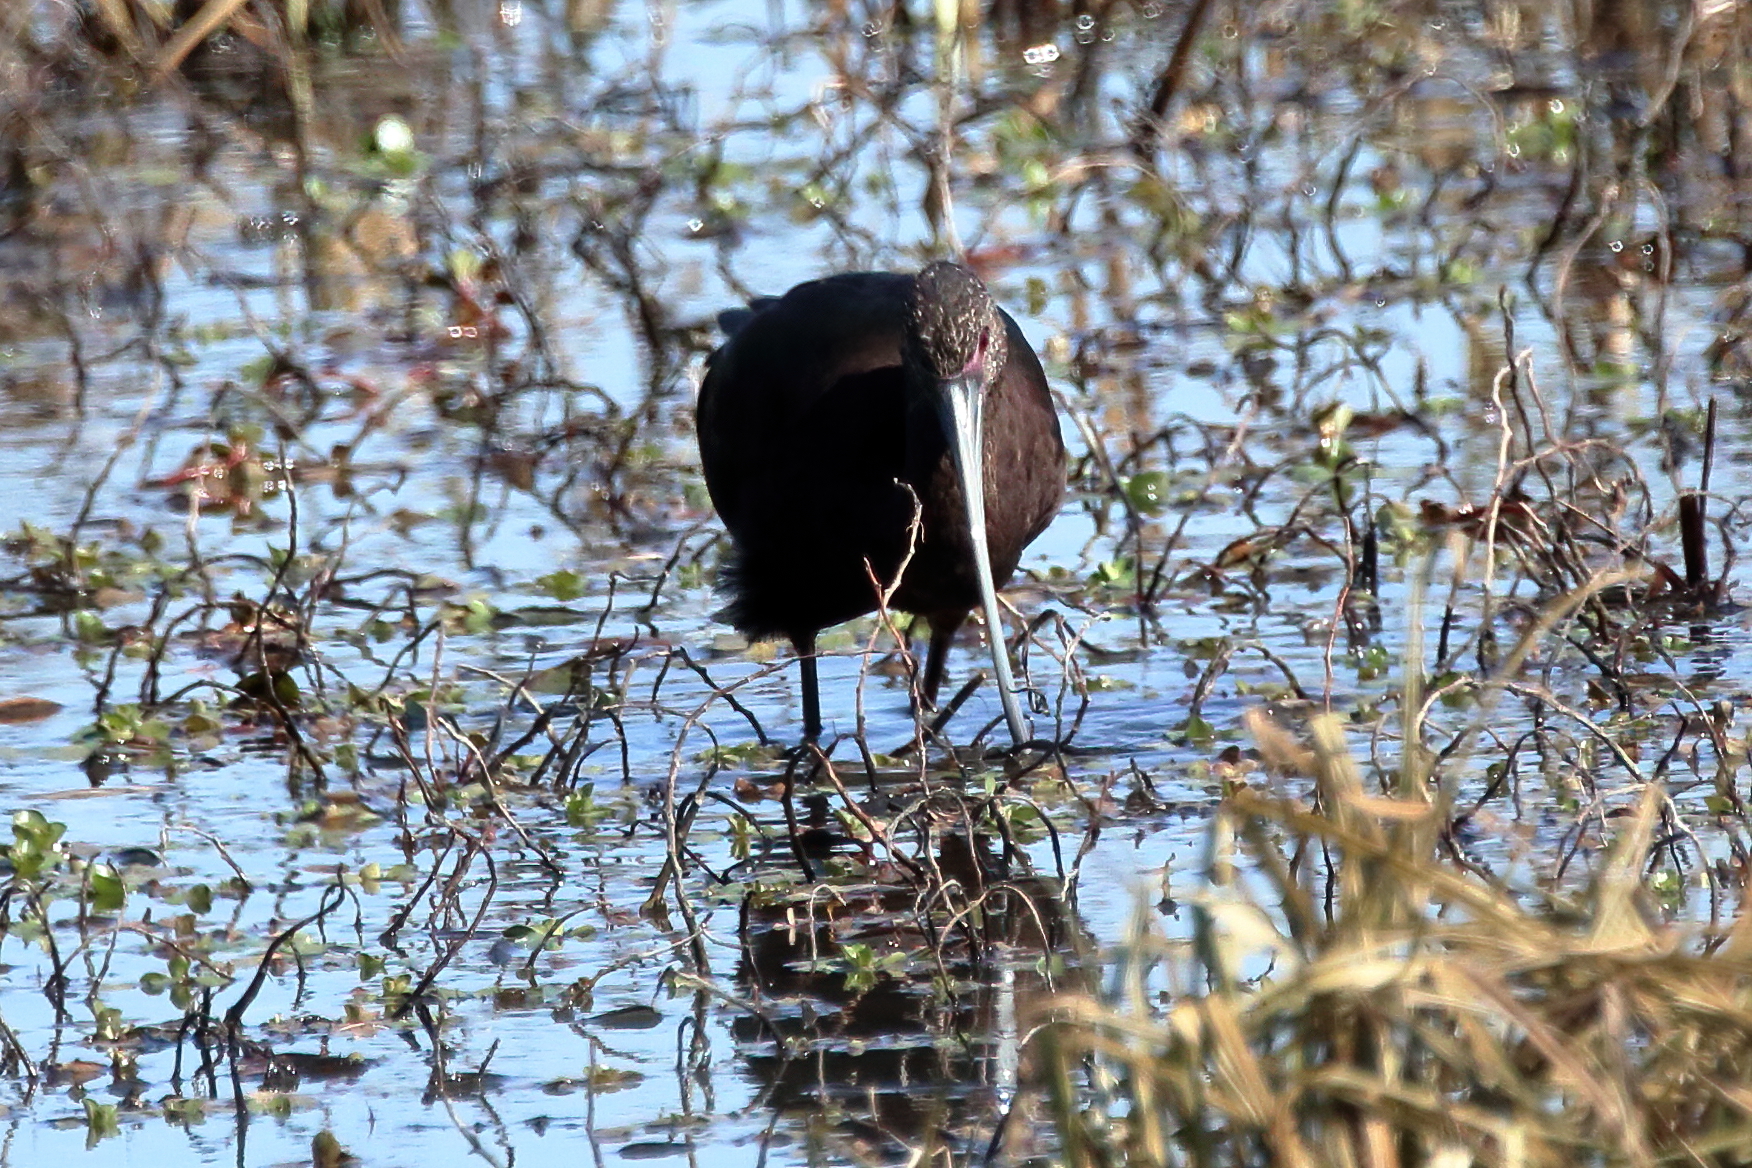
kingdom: Animalia
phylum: Chordata
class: Aves
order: Pelecaniformes
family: Threskiornithidae
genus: Plegadis
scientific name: Plegadis chihi
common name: White-faced ibis
